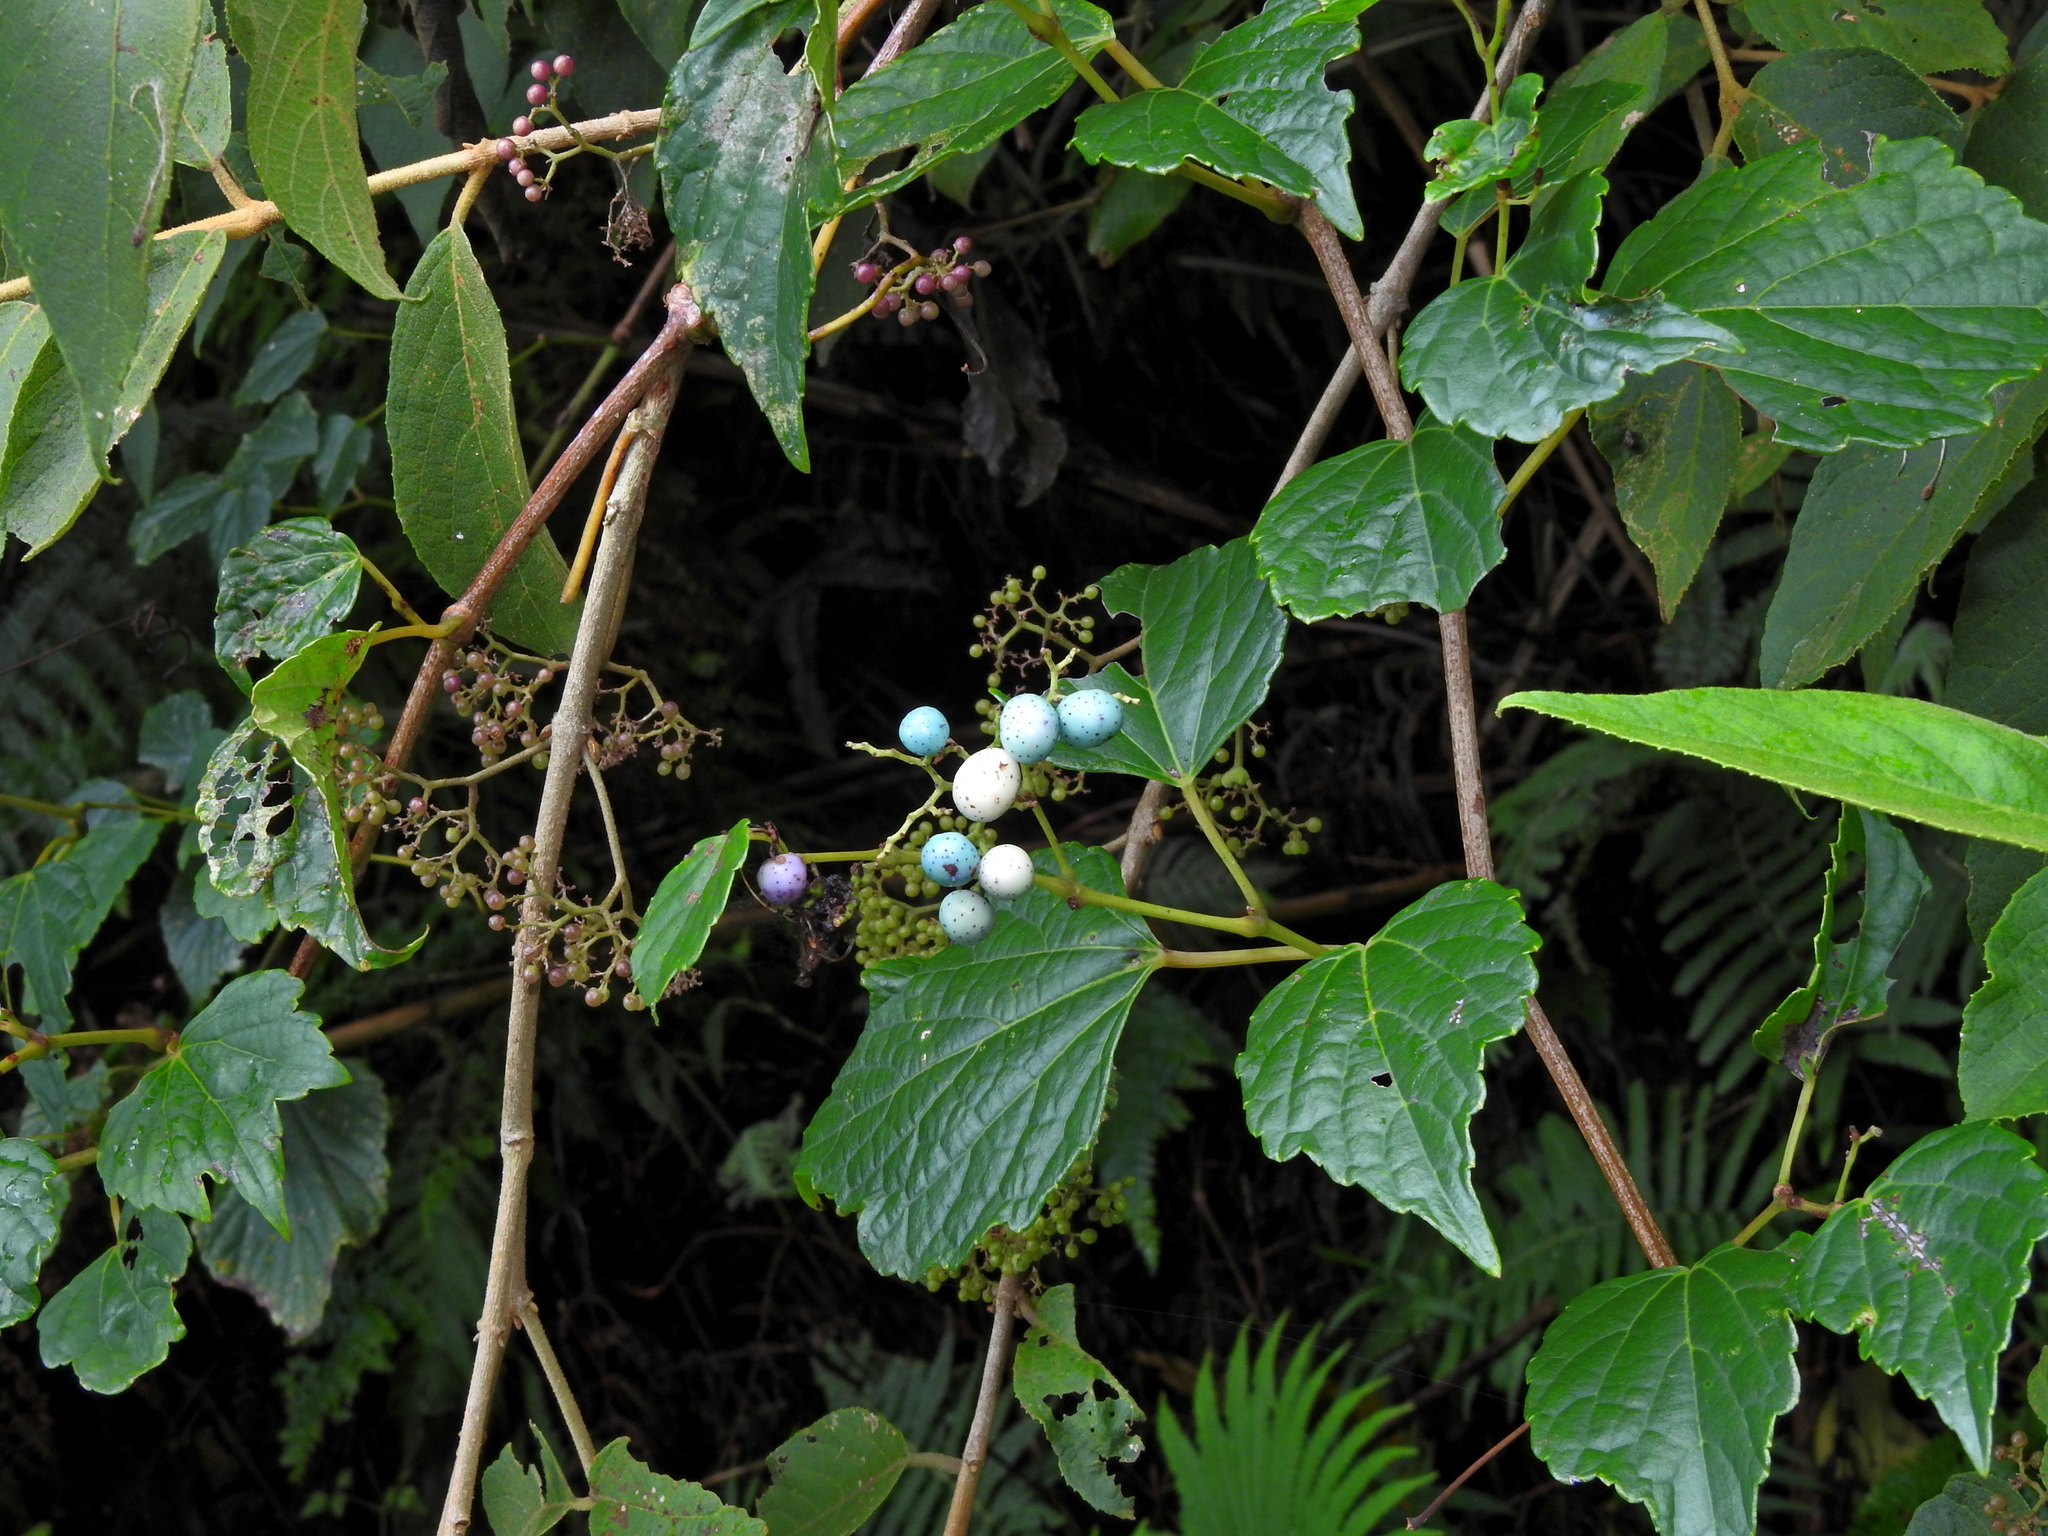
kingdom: Plantae
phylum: Tracheophyta
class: Magnoliopsida
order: Vitales
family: Vitaceae
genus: Ampelopsis
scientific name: Ampelopsis glandulosa
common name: Amur peppervine
